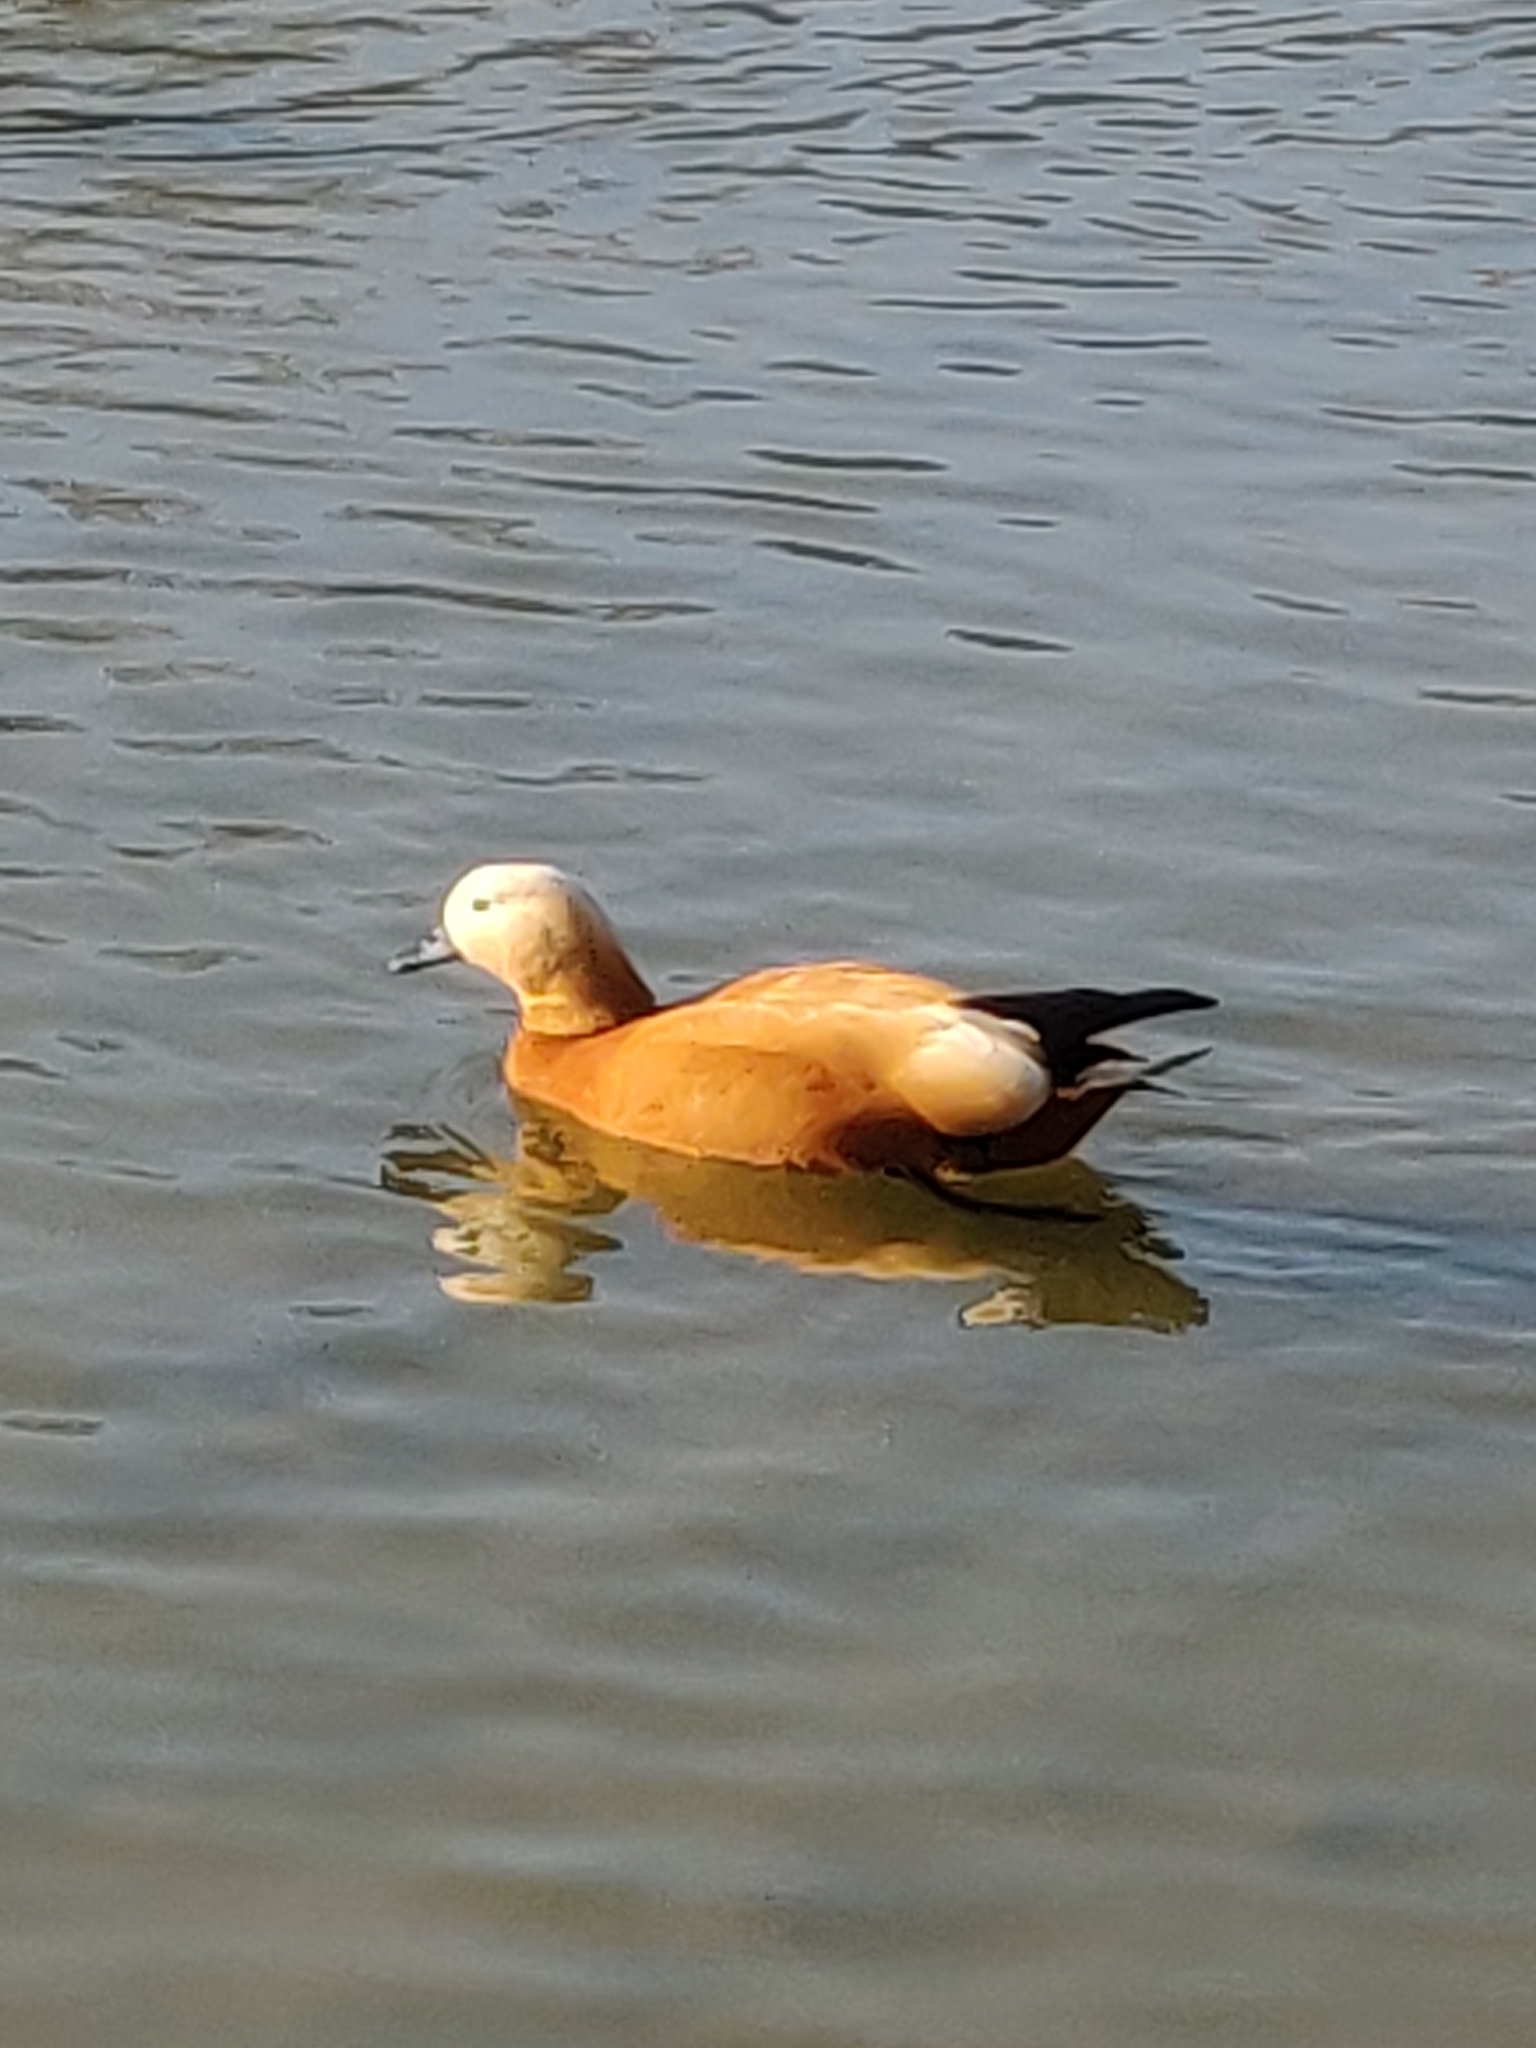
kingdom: Animalia
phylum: Chordata
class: Aves
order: Anseriformes
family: Anatidae
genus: Tadorna
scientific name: Tadorna ferruginea
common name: Ruddy shelduck
